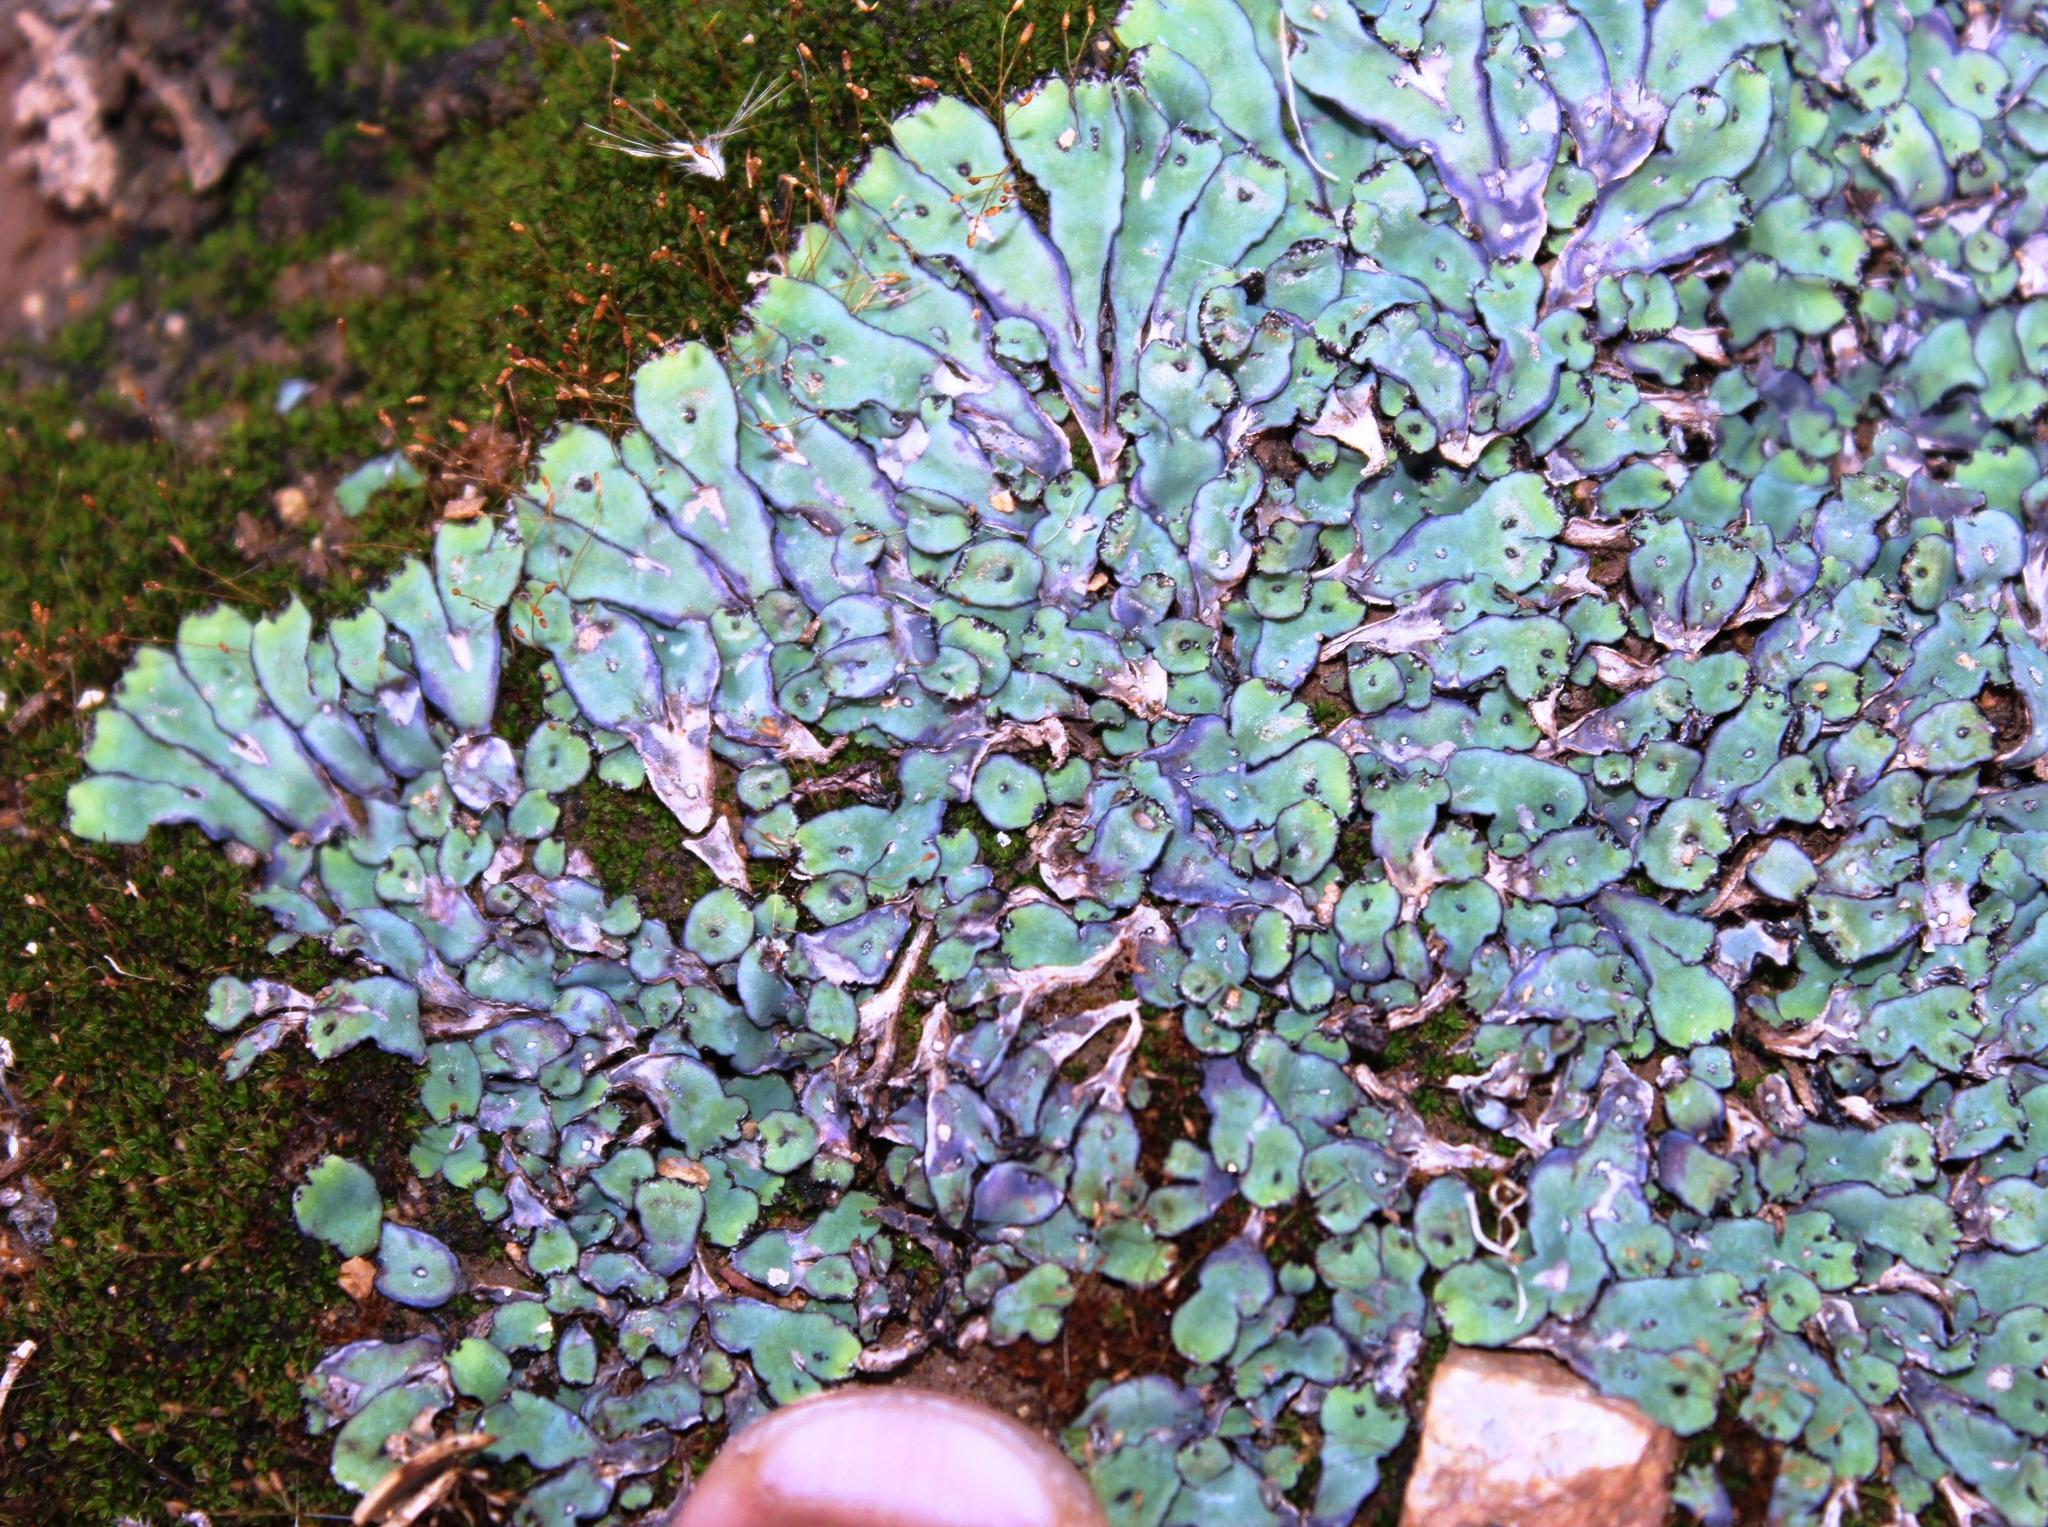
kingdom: Plantae
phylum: Marchantiophyta
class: Marchantiopsida
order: Marchantiales
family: Aytoniaceae
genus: Plagiochasma
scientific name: Plagiochasma rupestre
